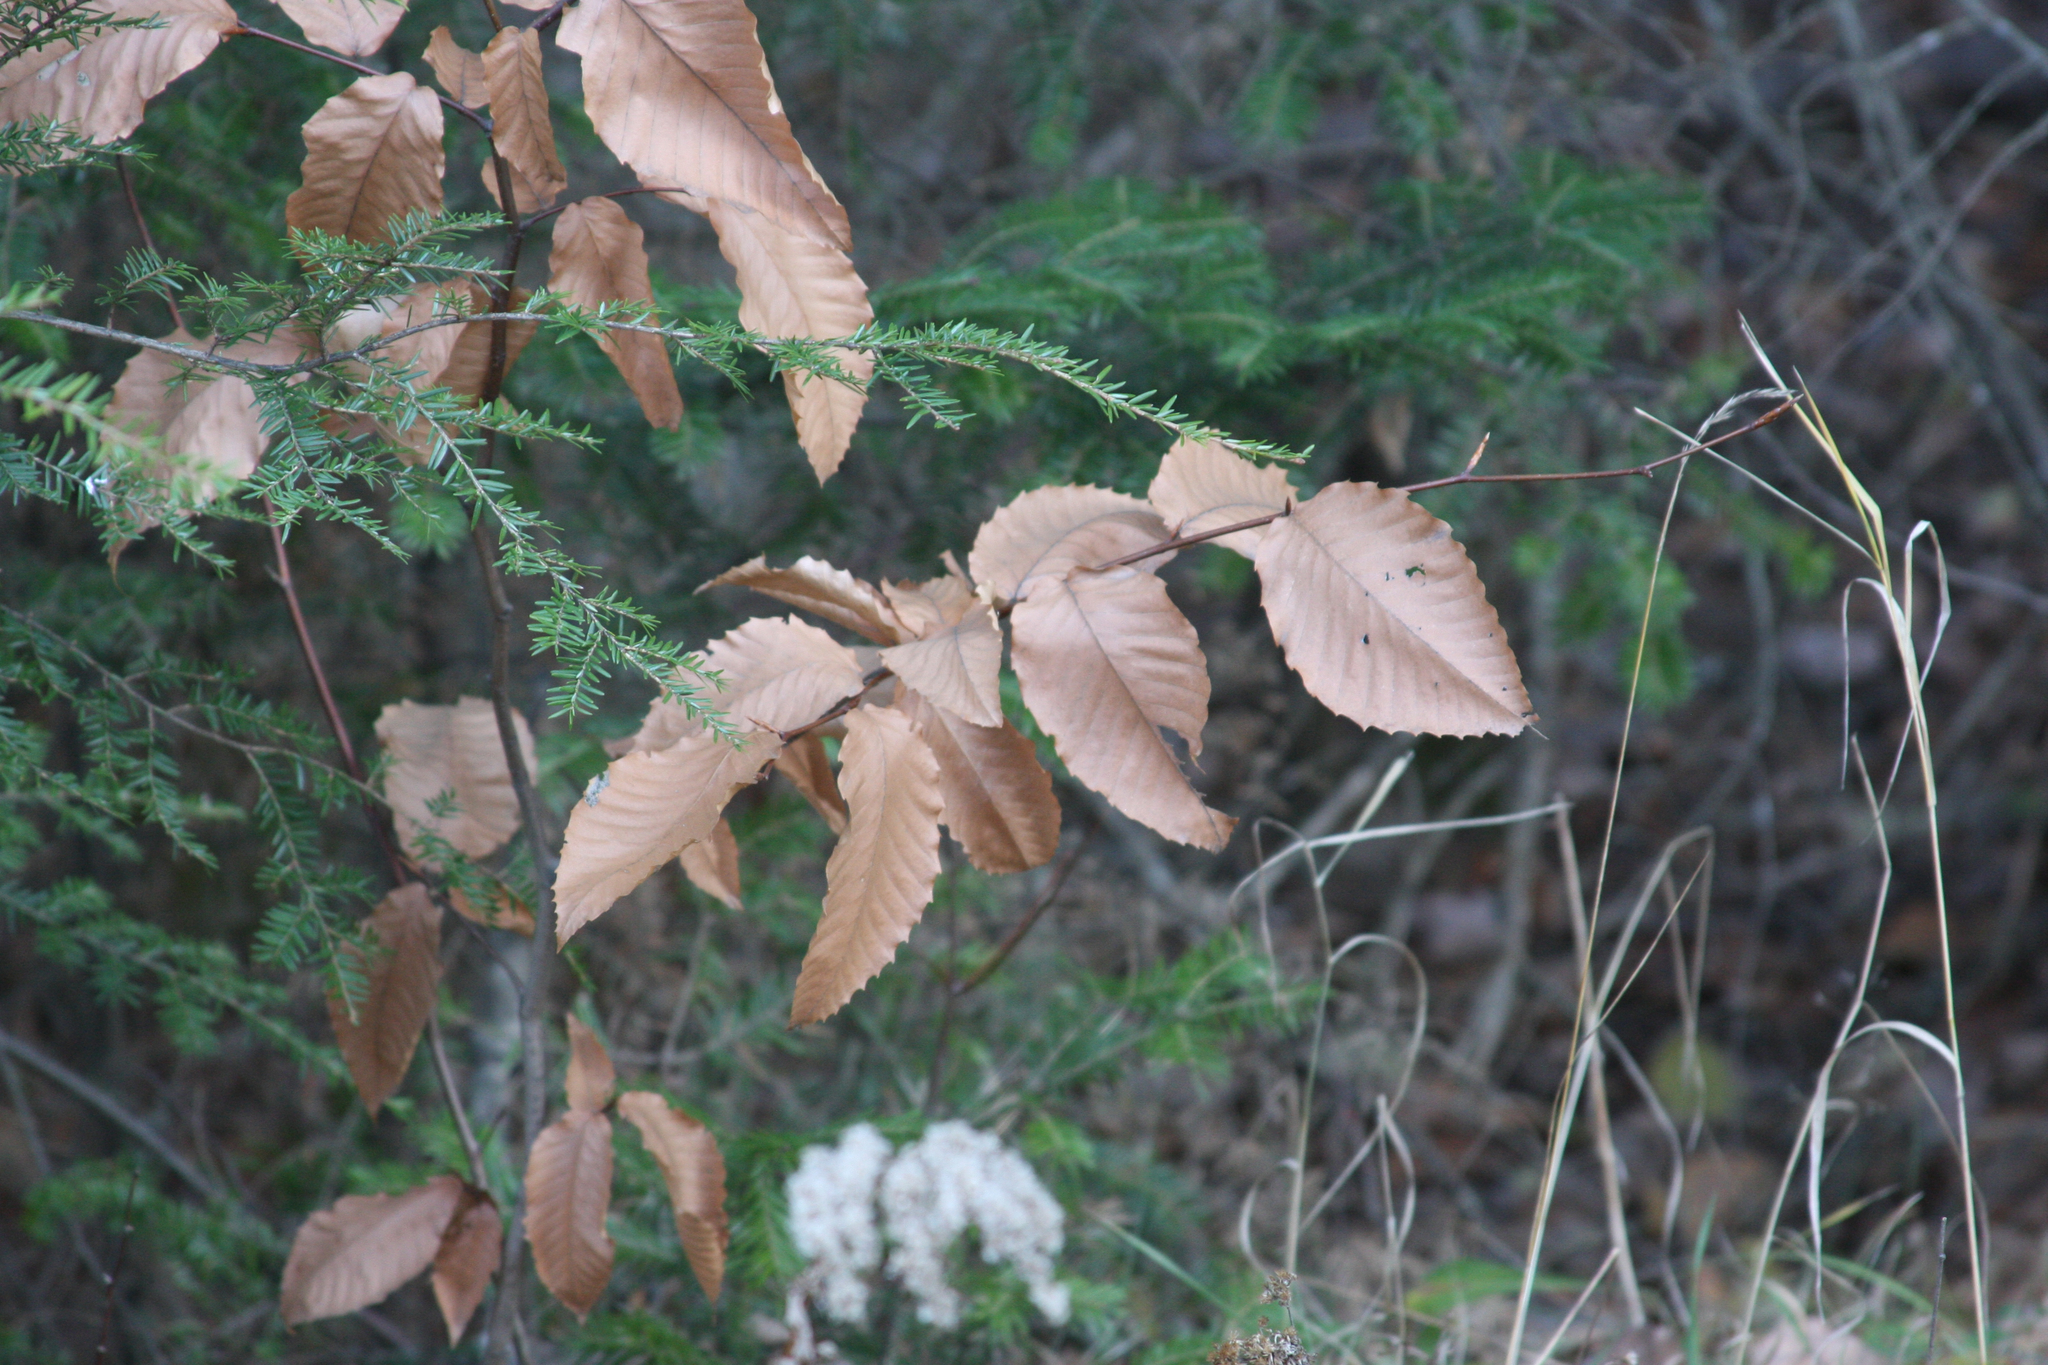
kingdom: Plantae
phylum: Tracheophyta
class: Magnoliopsida
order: Fagales
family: Fagaceae
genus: Fagus
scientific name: Fagus grandifolia
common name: American beech
